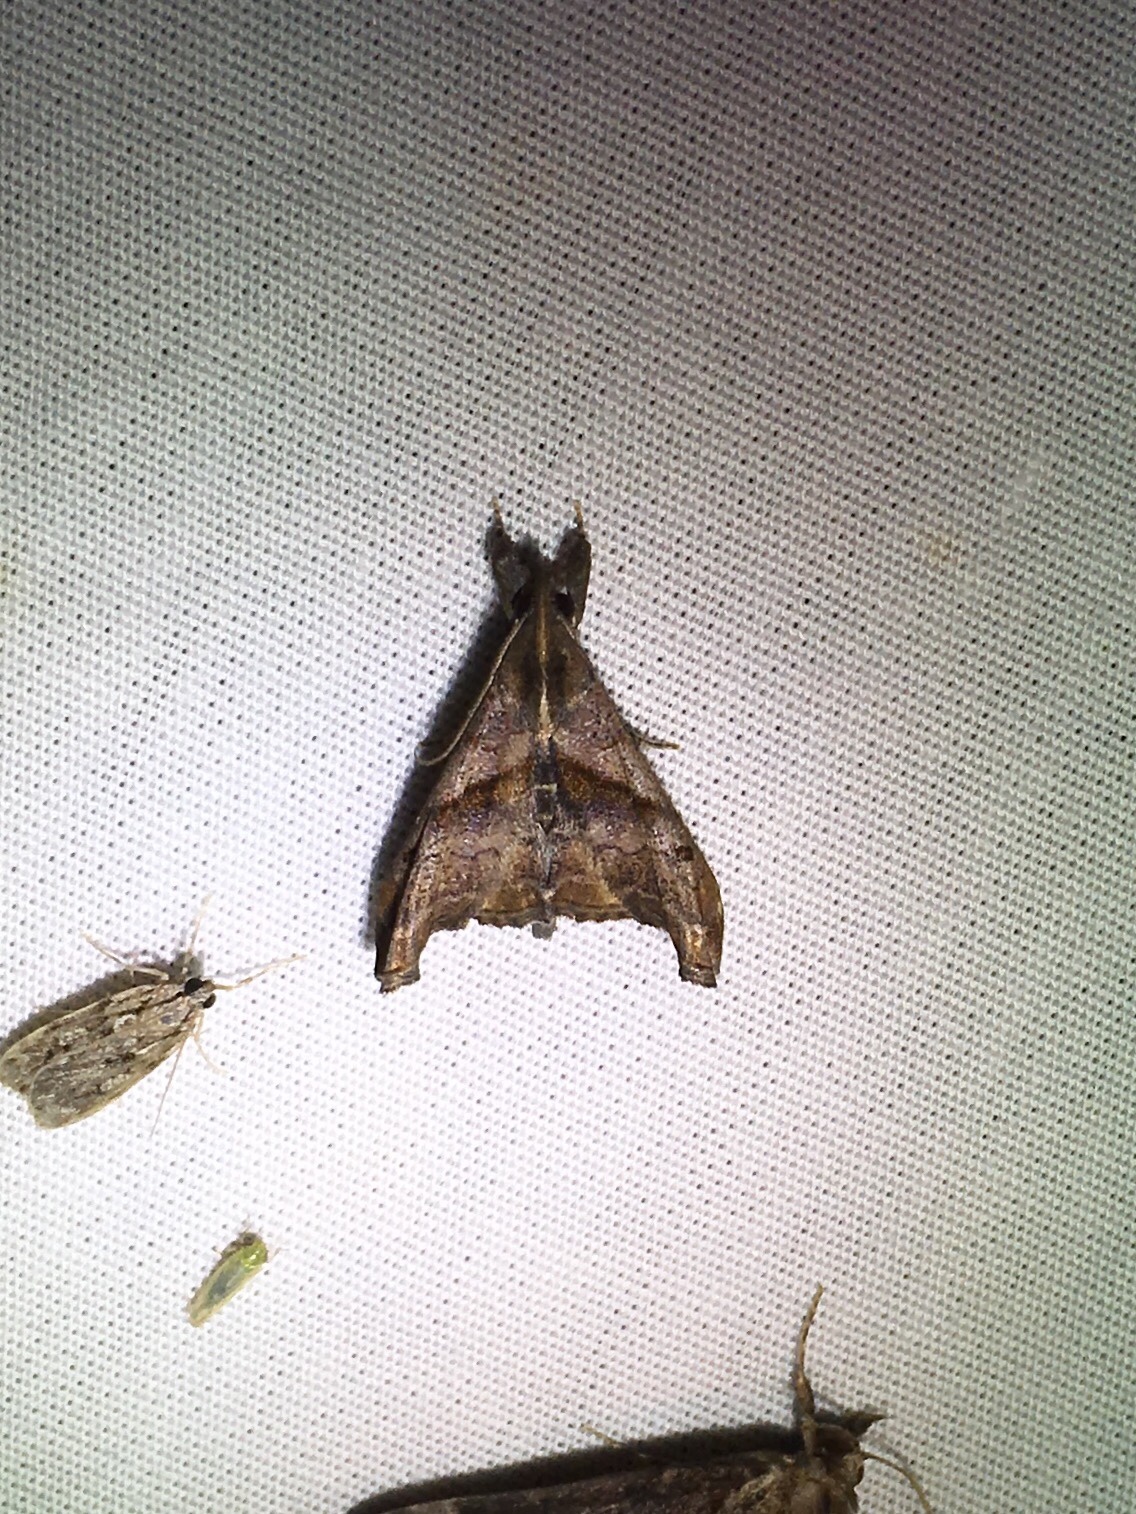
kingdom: Animalia
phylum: Arthropoda
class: Insecta
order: Lepidoptera
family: Erebidae
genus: Palthis
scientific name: Palthis angulalis
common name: Dark-spotted palthis moth
